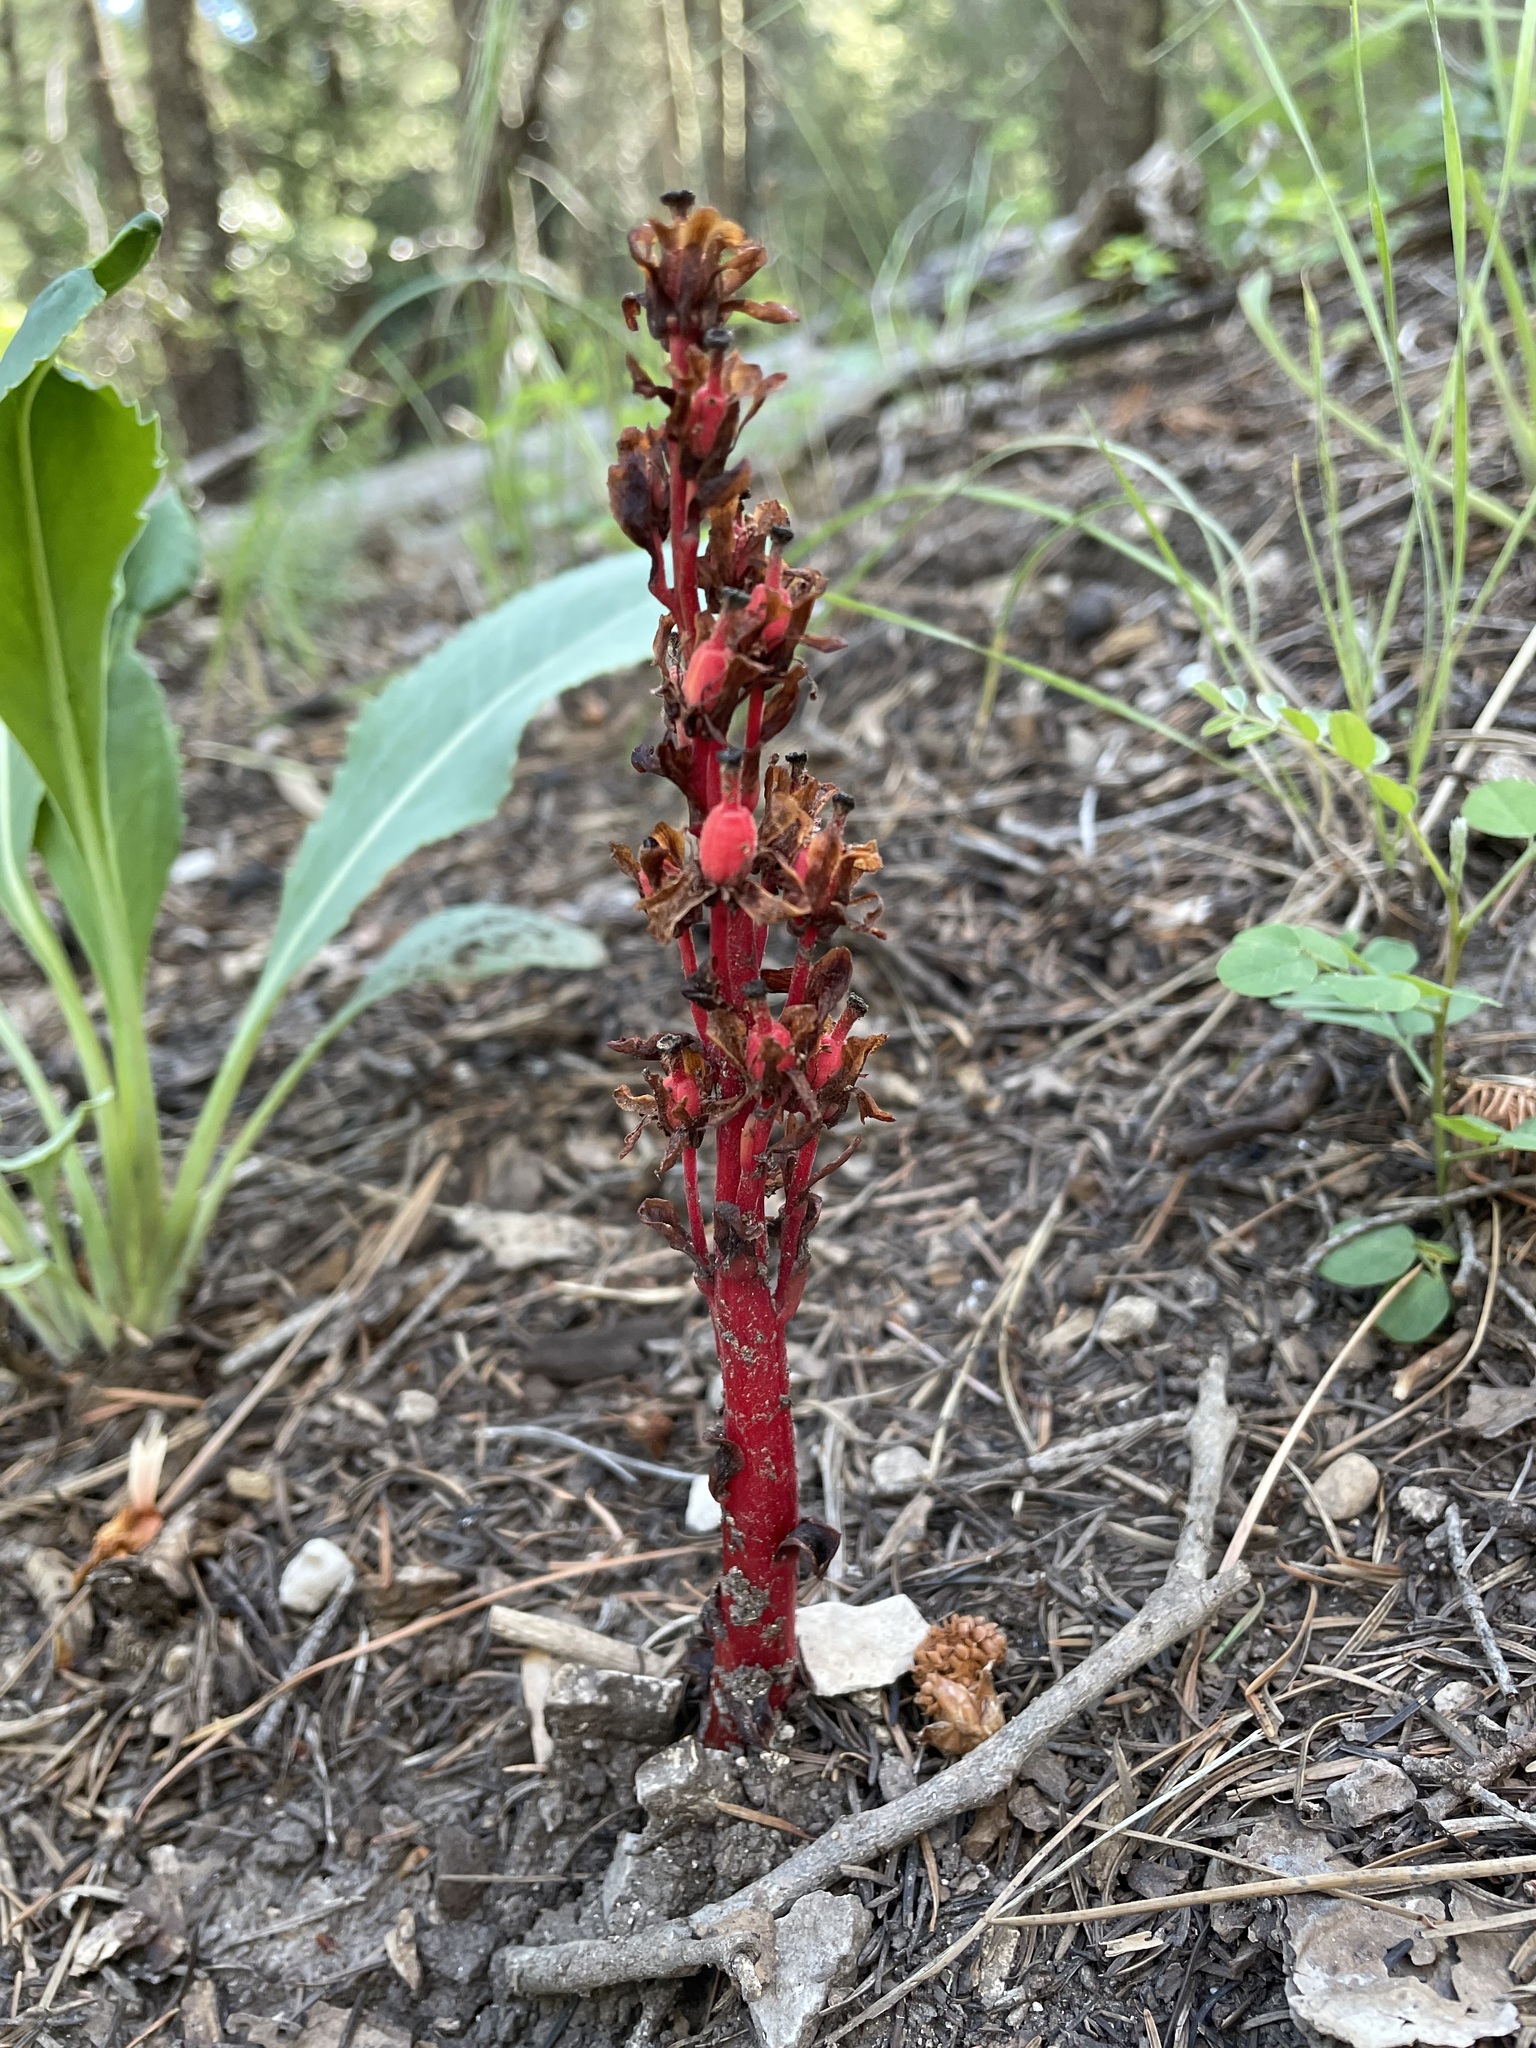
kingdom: Plantae
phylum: Tracheophyta
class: Magnoliopsida
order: Ericales
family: Ericaceae
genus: Hypopitys
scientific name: Hypopitys monotropa
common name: Yellow bird's-nest
